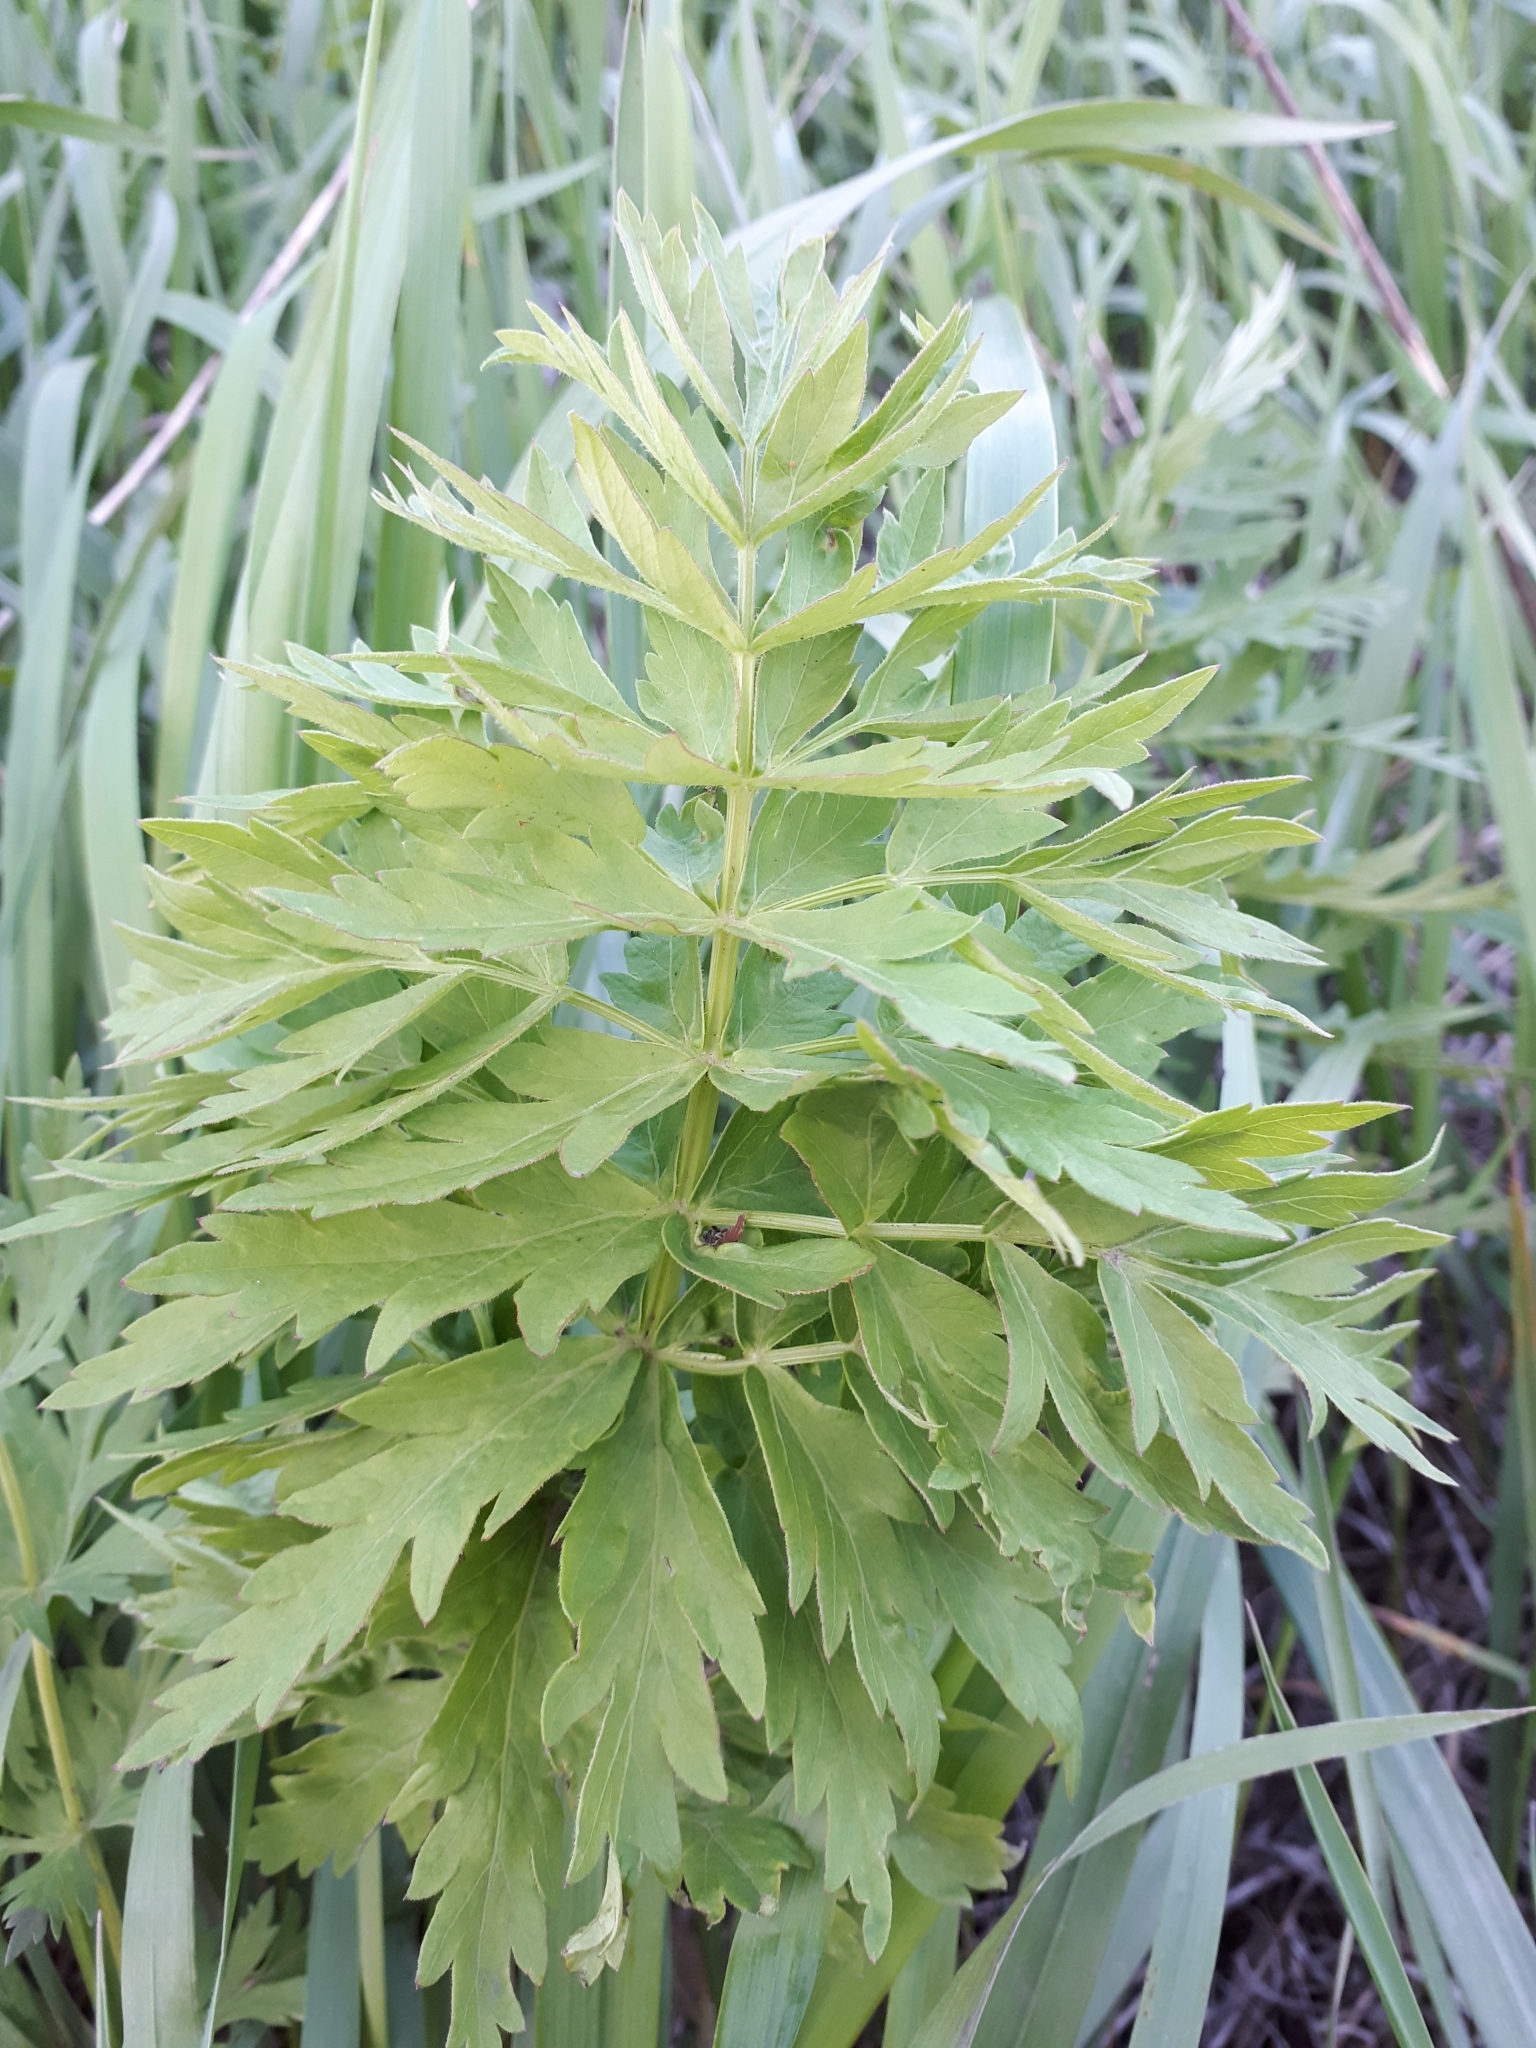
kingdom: Plantae
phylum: Tracheophyta
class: Magnoliopsida
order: Apiales
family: Apiaceae
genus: Seseli
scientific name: Seseli libanotis
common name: Mooncarrot
